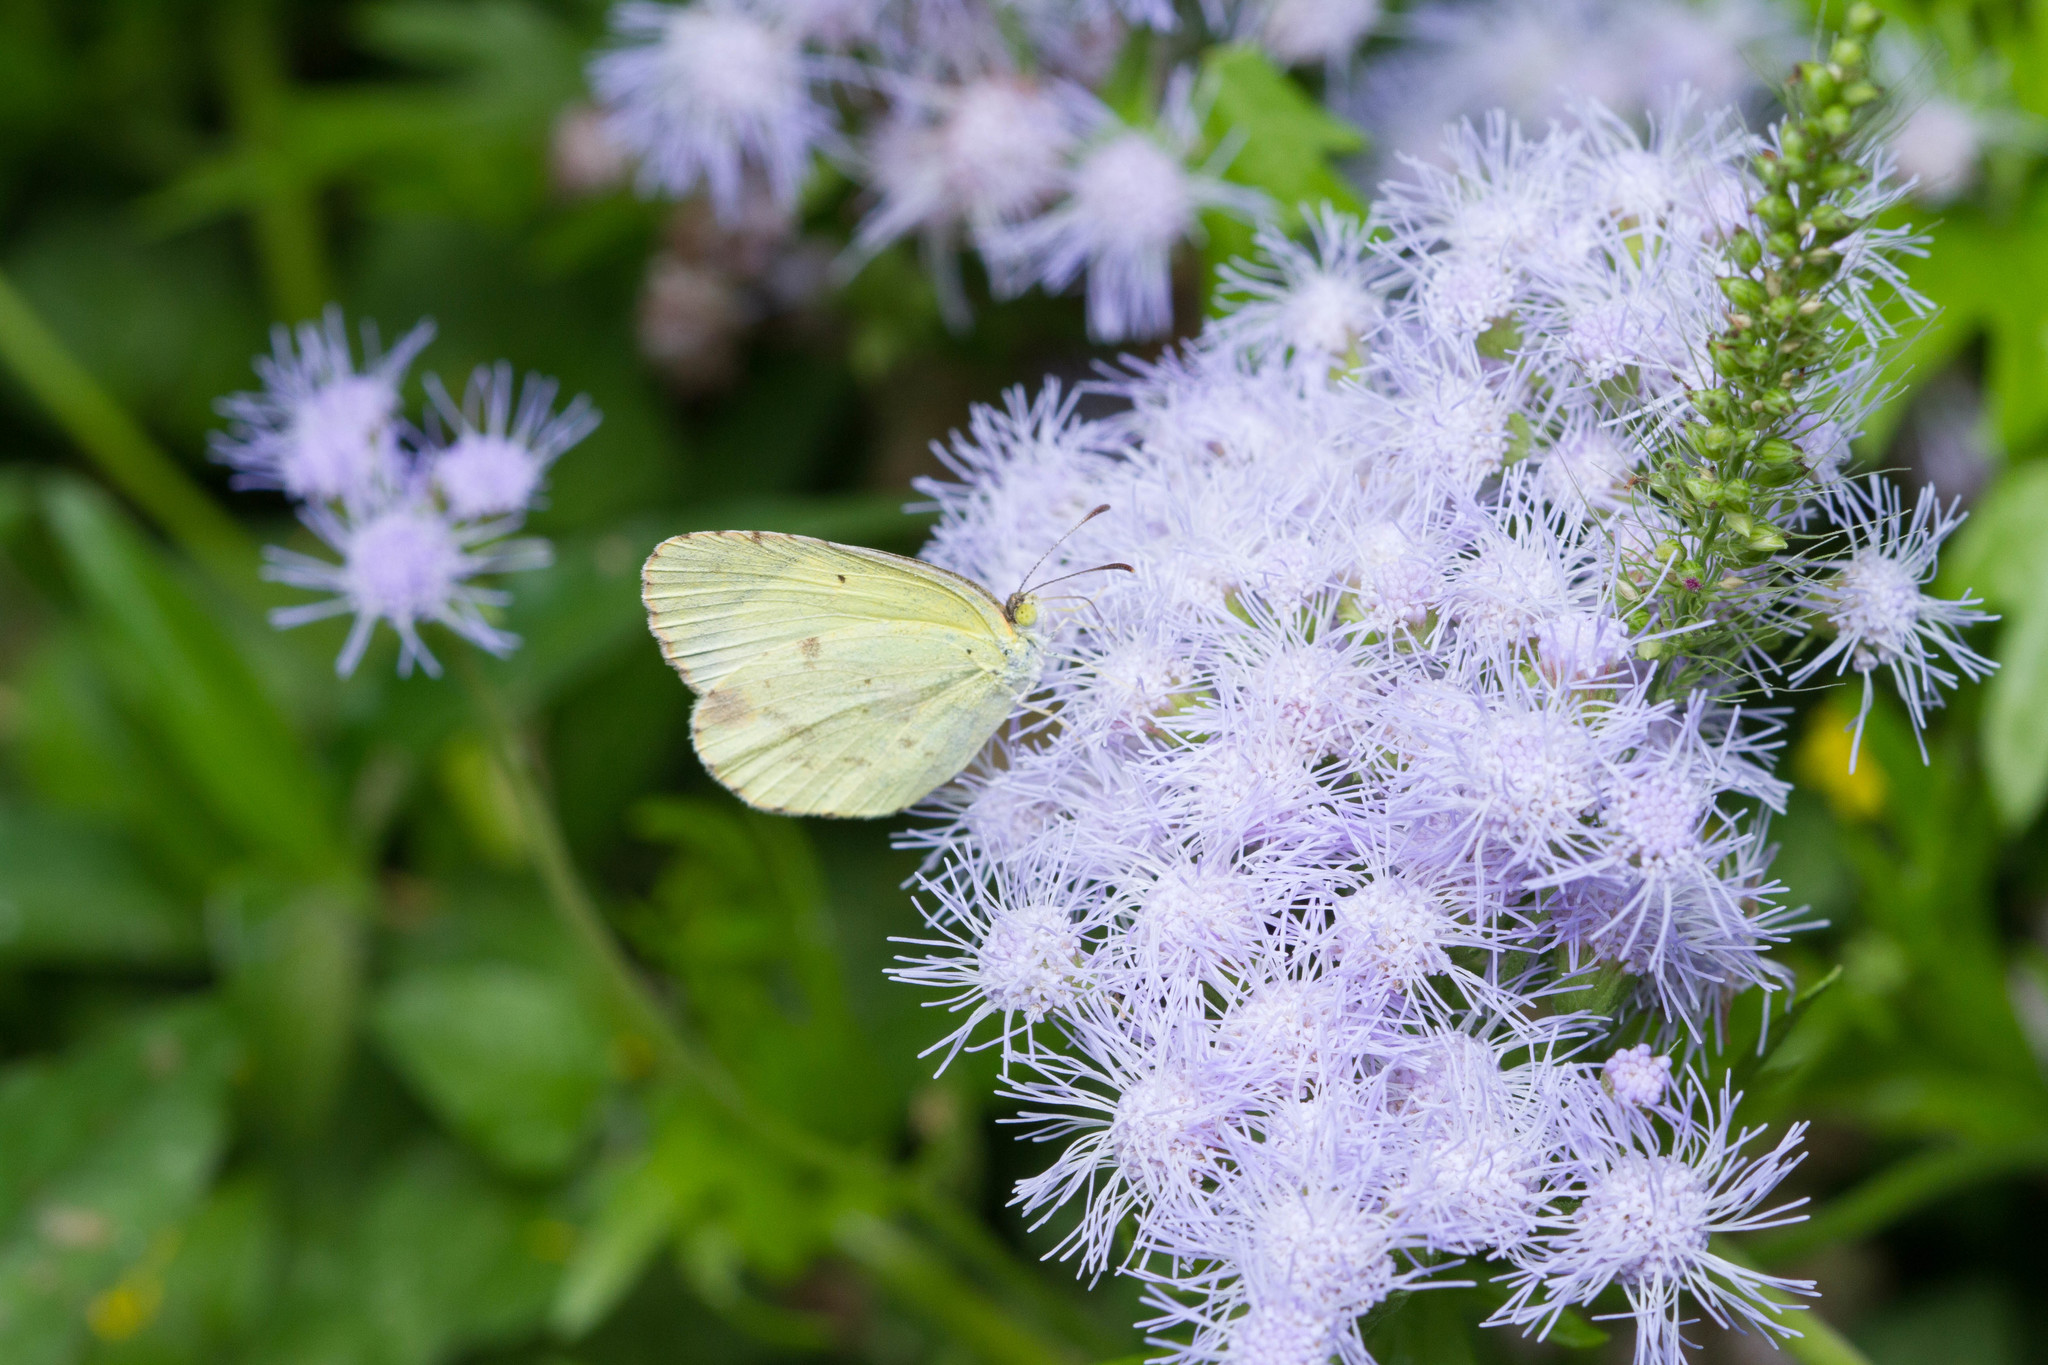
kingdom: Animalia
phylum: Arthropoda
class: Insecta
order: Lepidoptera
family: Pieridae
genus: Pyrisitia
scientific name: Pyrisitia lisa
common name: Little yellow
